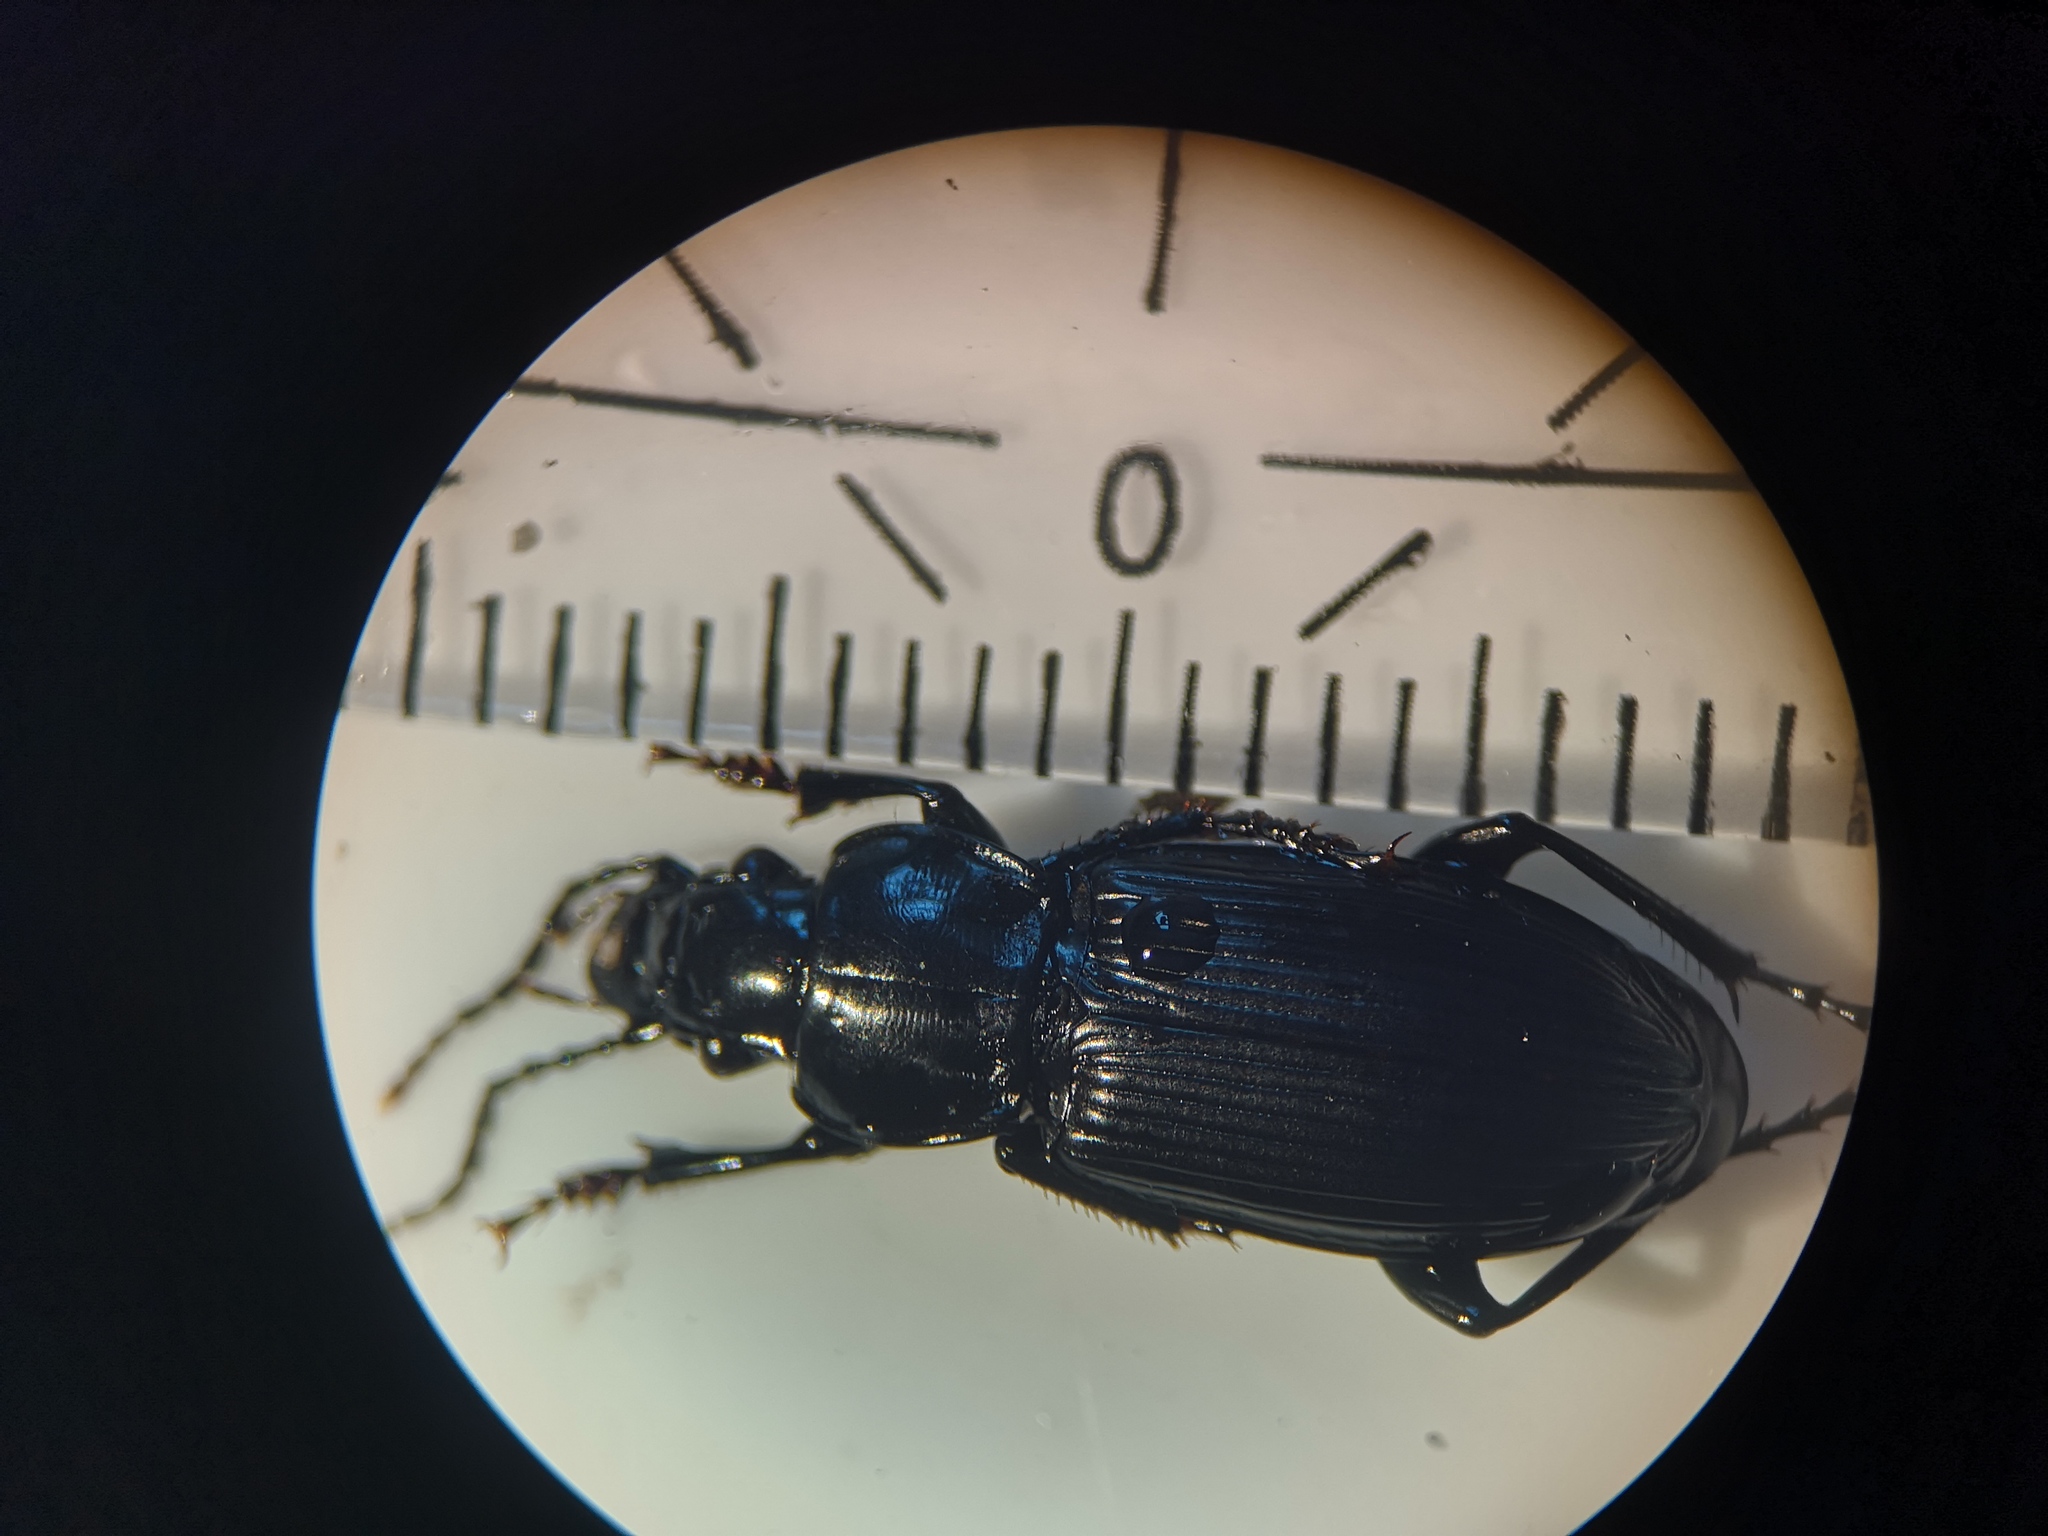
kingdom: Animalia
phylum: Arthropoda
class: Insecta
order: Coleoptera
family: Carabidae
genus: Pterostichus
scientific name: Pterostichus melanarius
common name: European dark harp ground beetle
